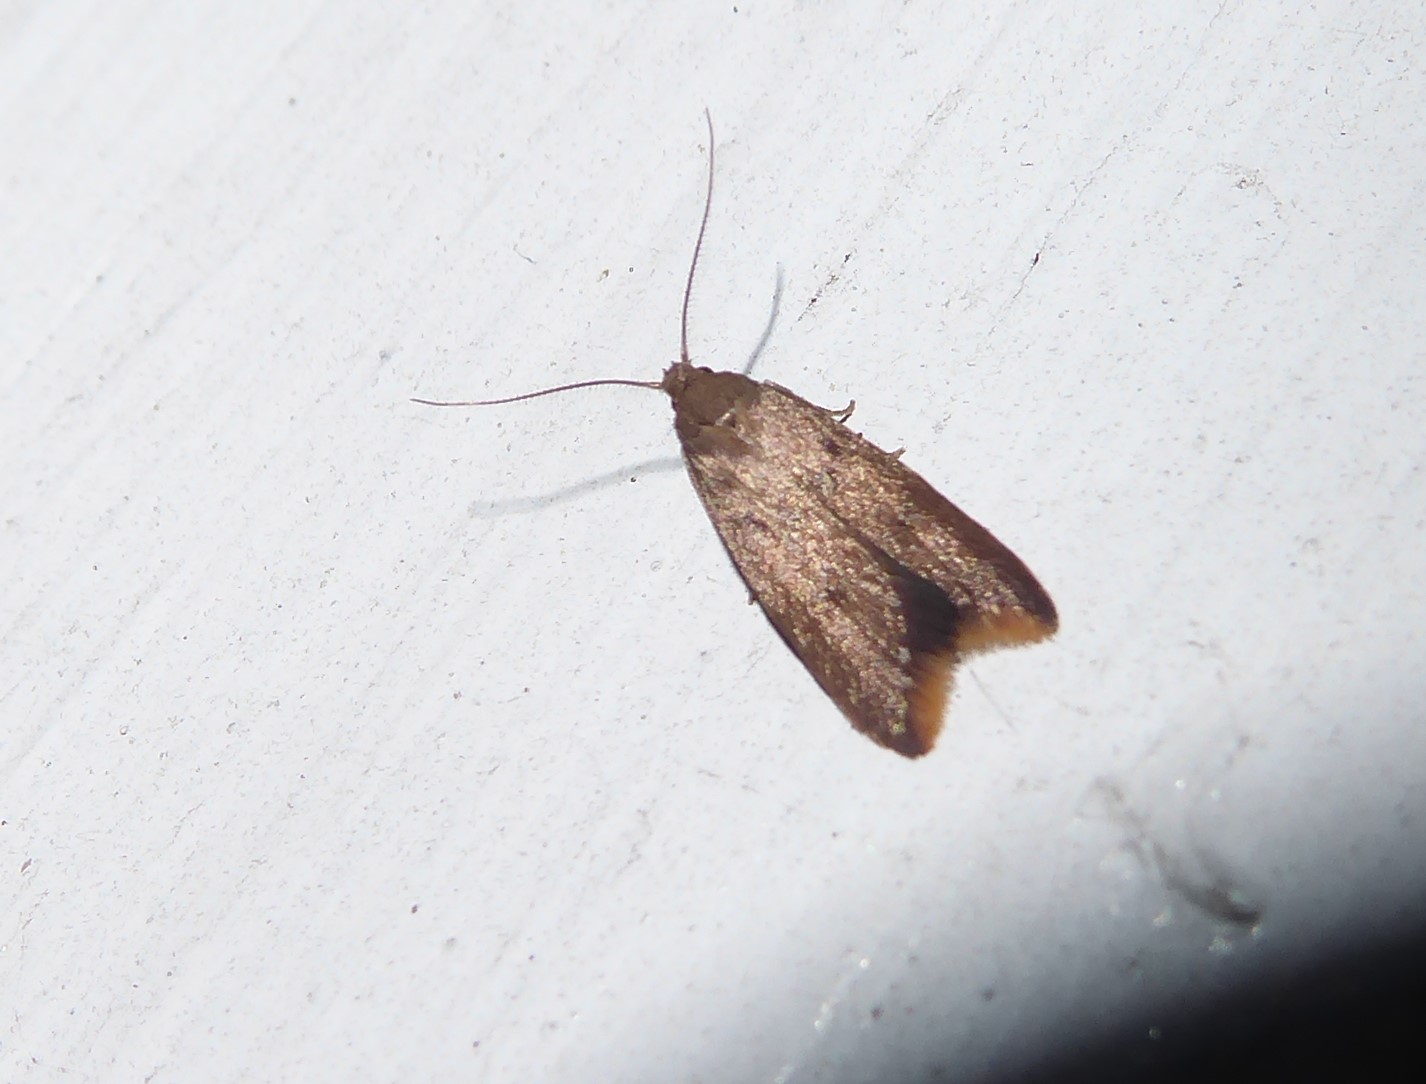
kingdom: Animalia
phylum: Arthropoda
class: Insecta
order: Lepidoptera
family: Oecophoridae
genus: Tachystola
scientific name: Tachystola acroxantha
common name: Ruddy streak
